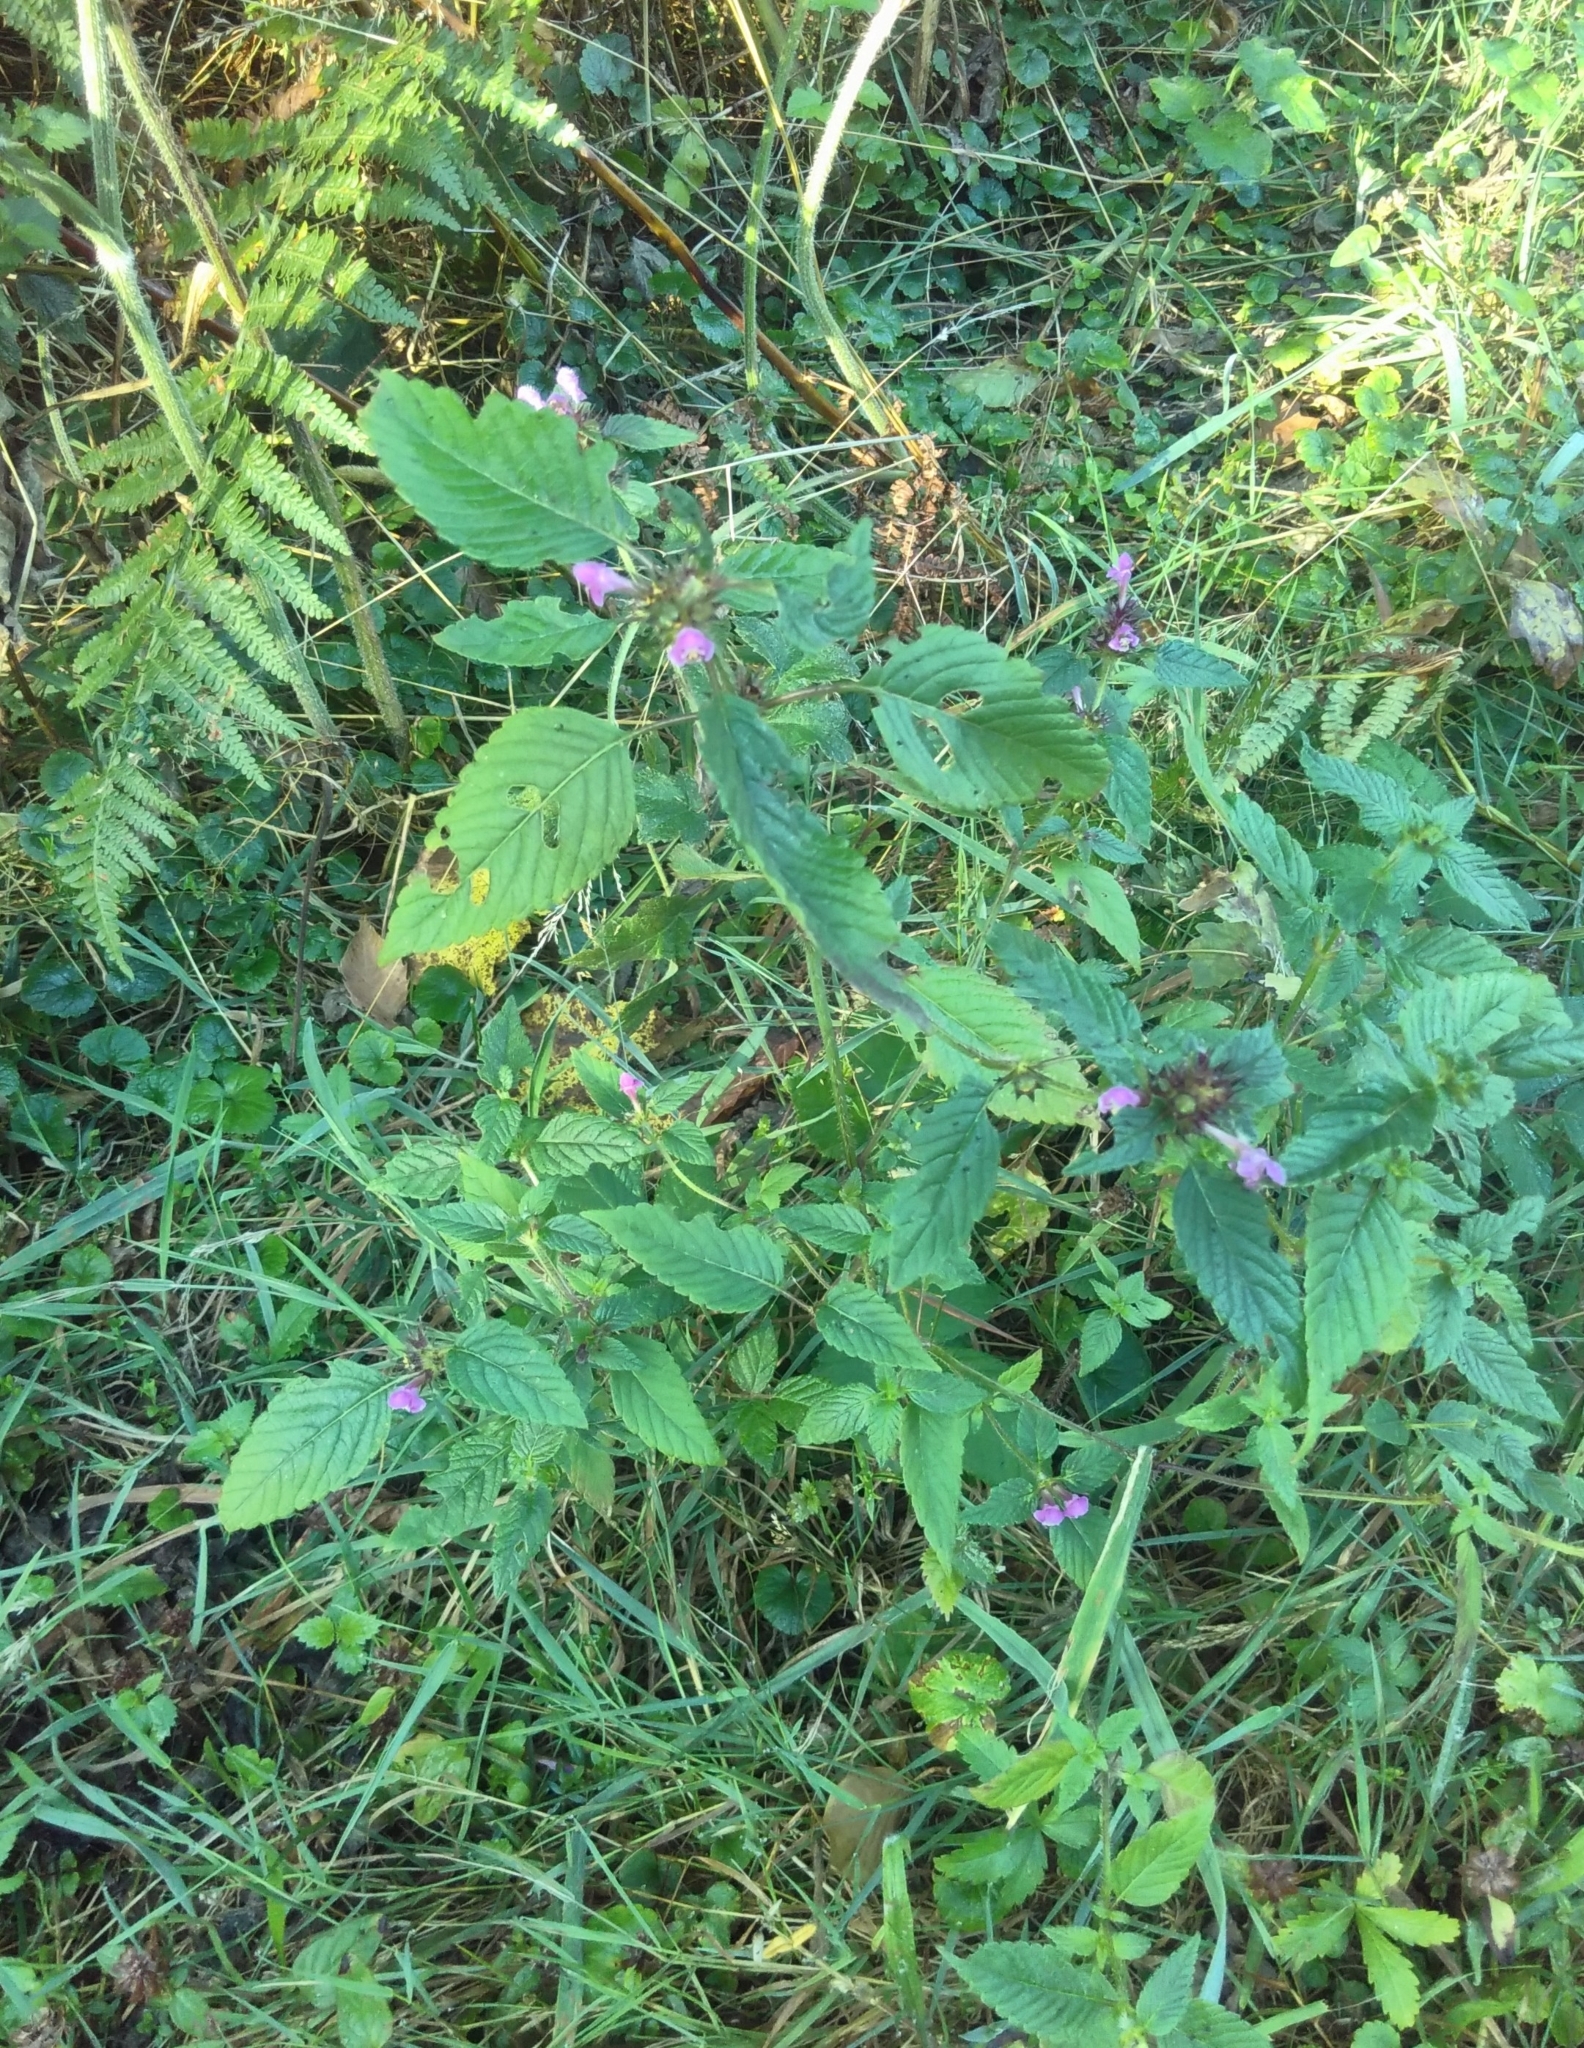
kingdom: Plantae
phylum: Tracheophyta
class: Magnoliopsida
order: Lamiales
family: Lamiaceae
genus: Galeopsis
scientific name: Galeopsis tetrahit
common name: Common hemp-nettle
